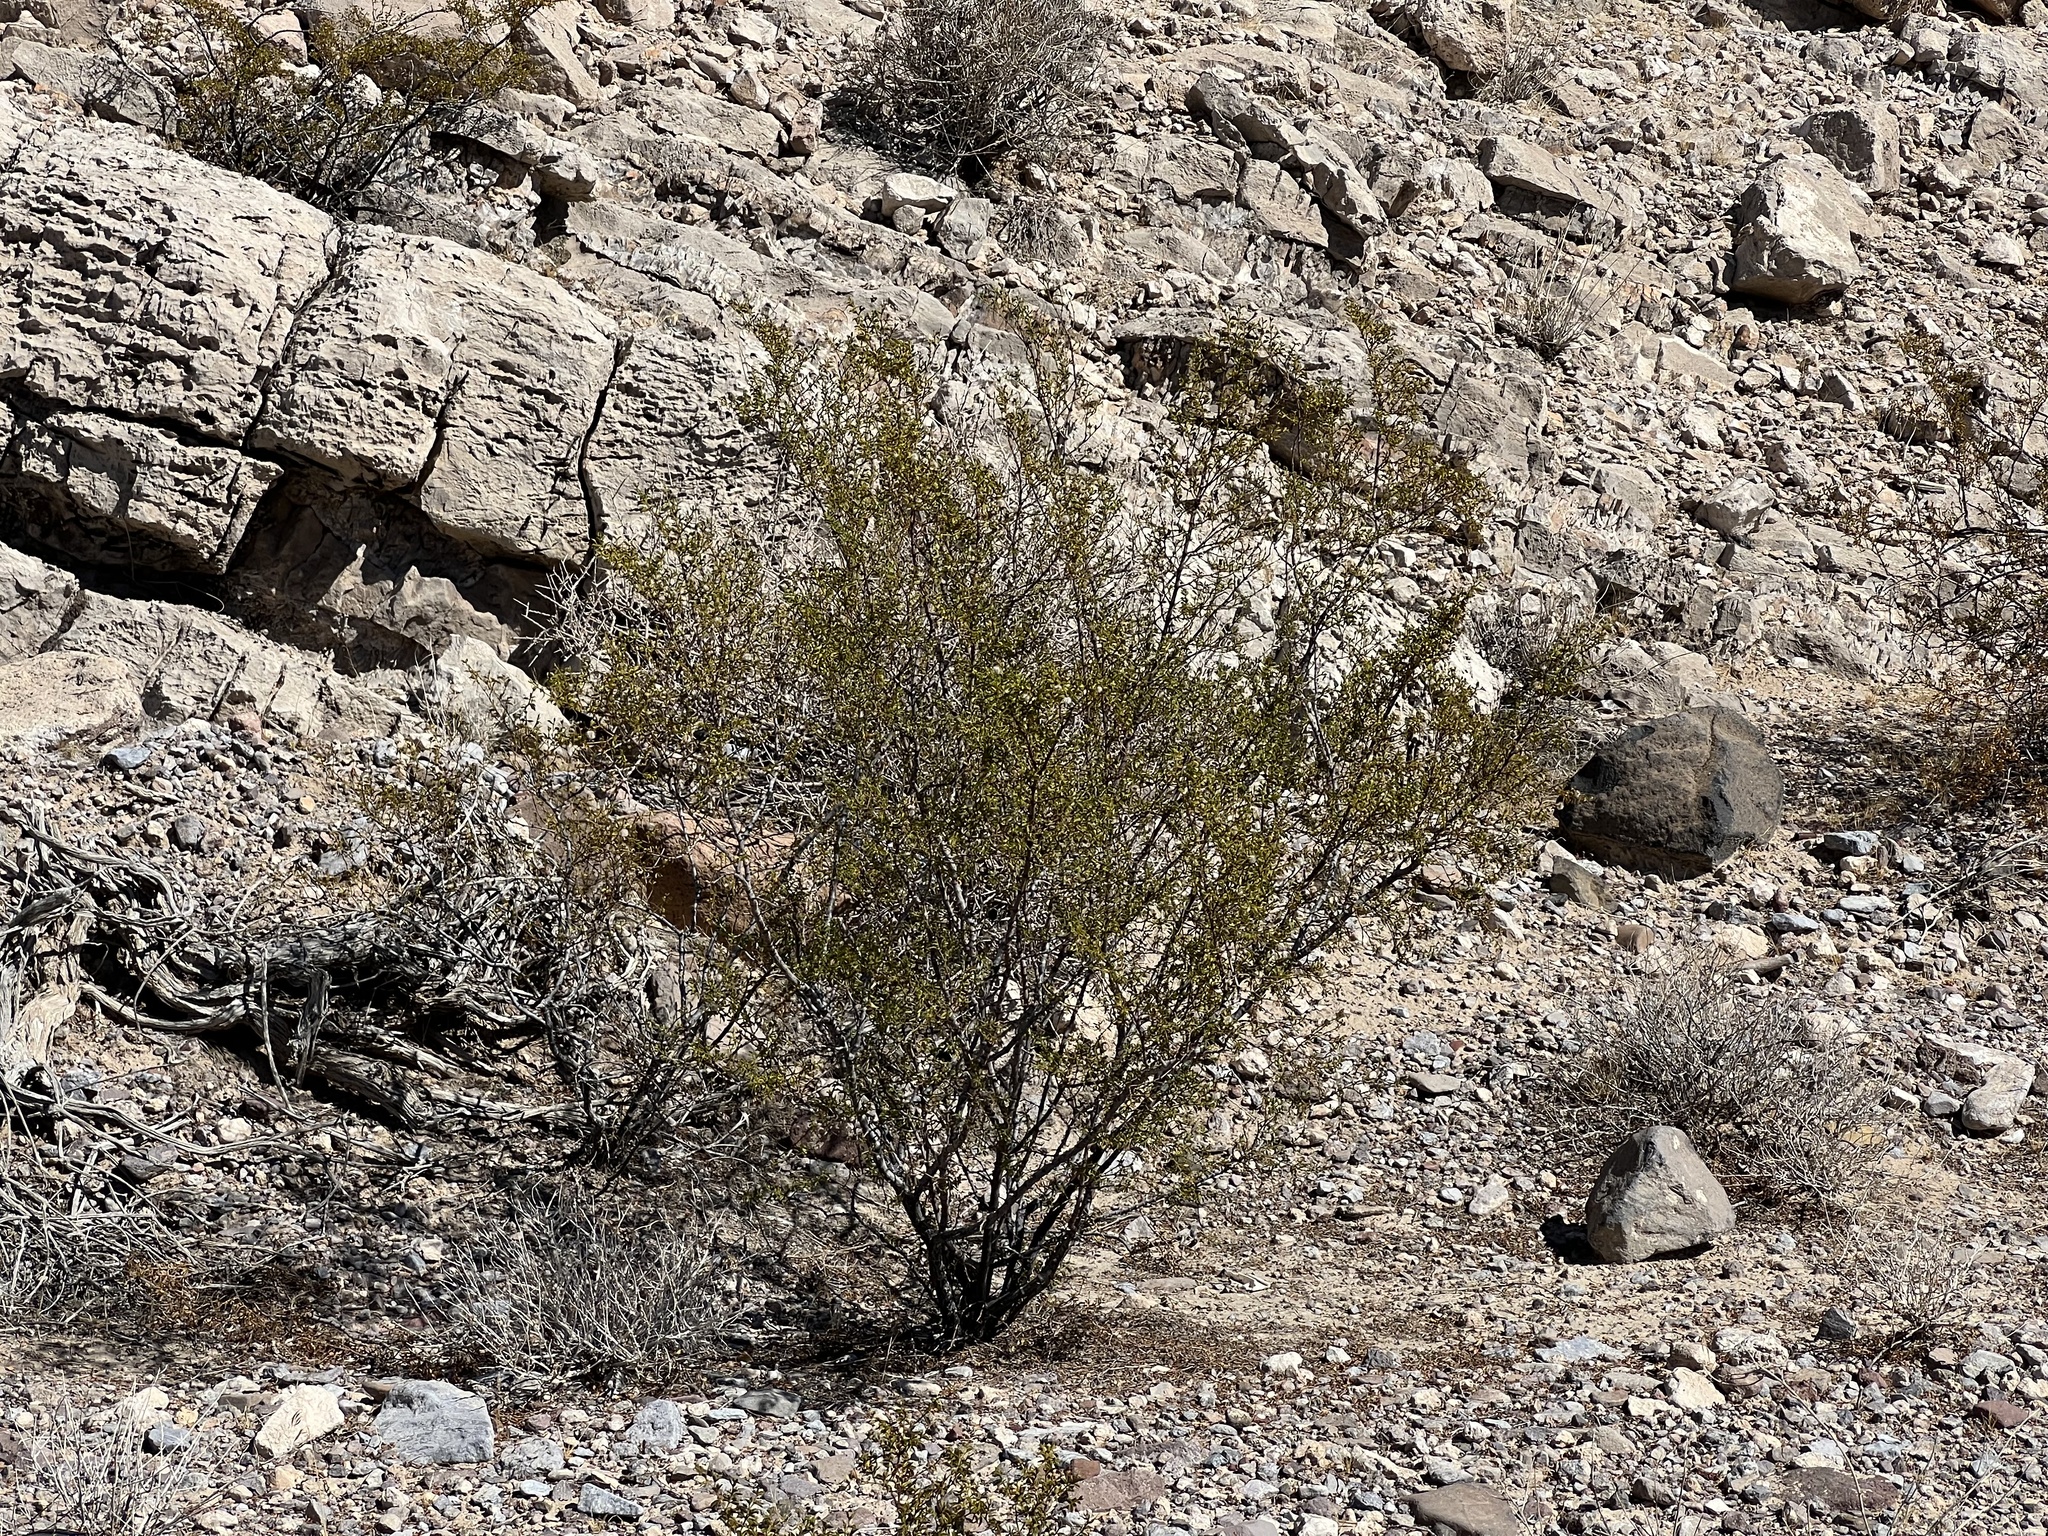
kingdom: Plantae
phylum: Tracheophyta
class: Magnoliopsida
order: Zygophyllales
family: Zygophyllaceae
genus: Larrea
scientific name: Larrea tridentata
